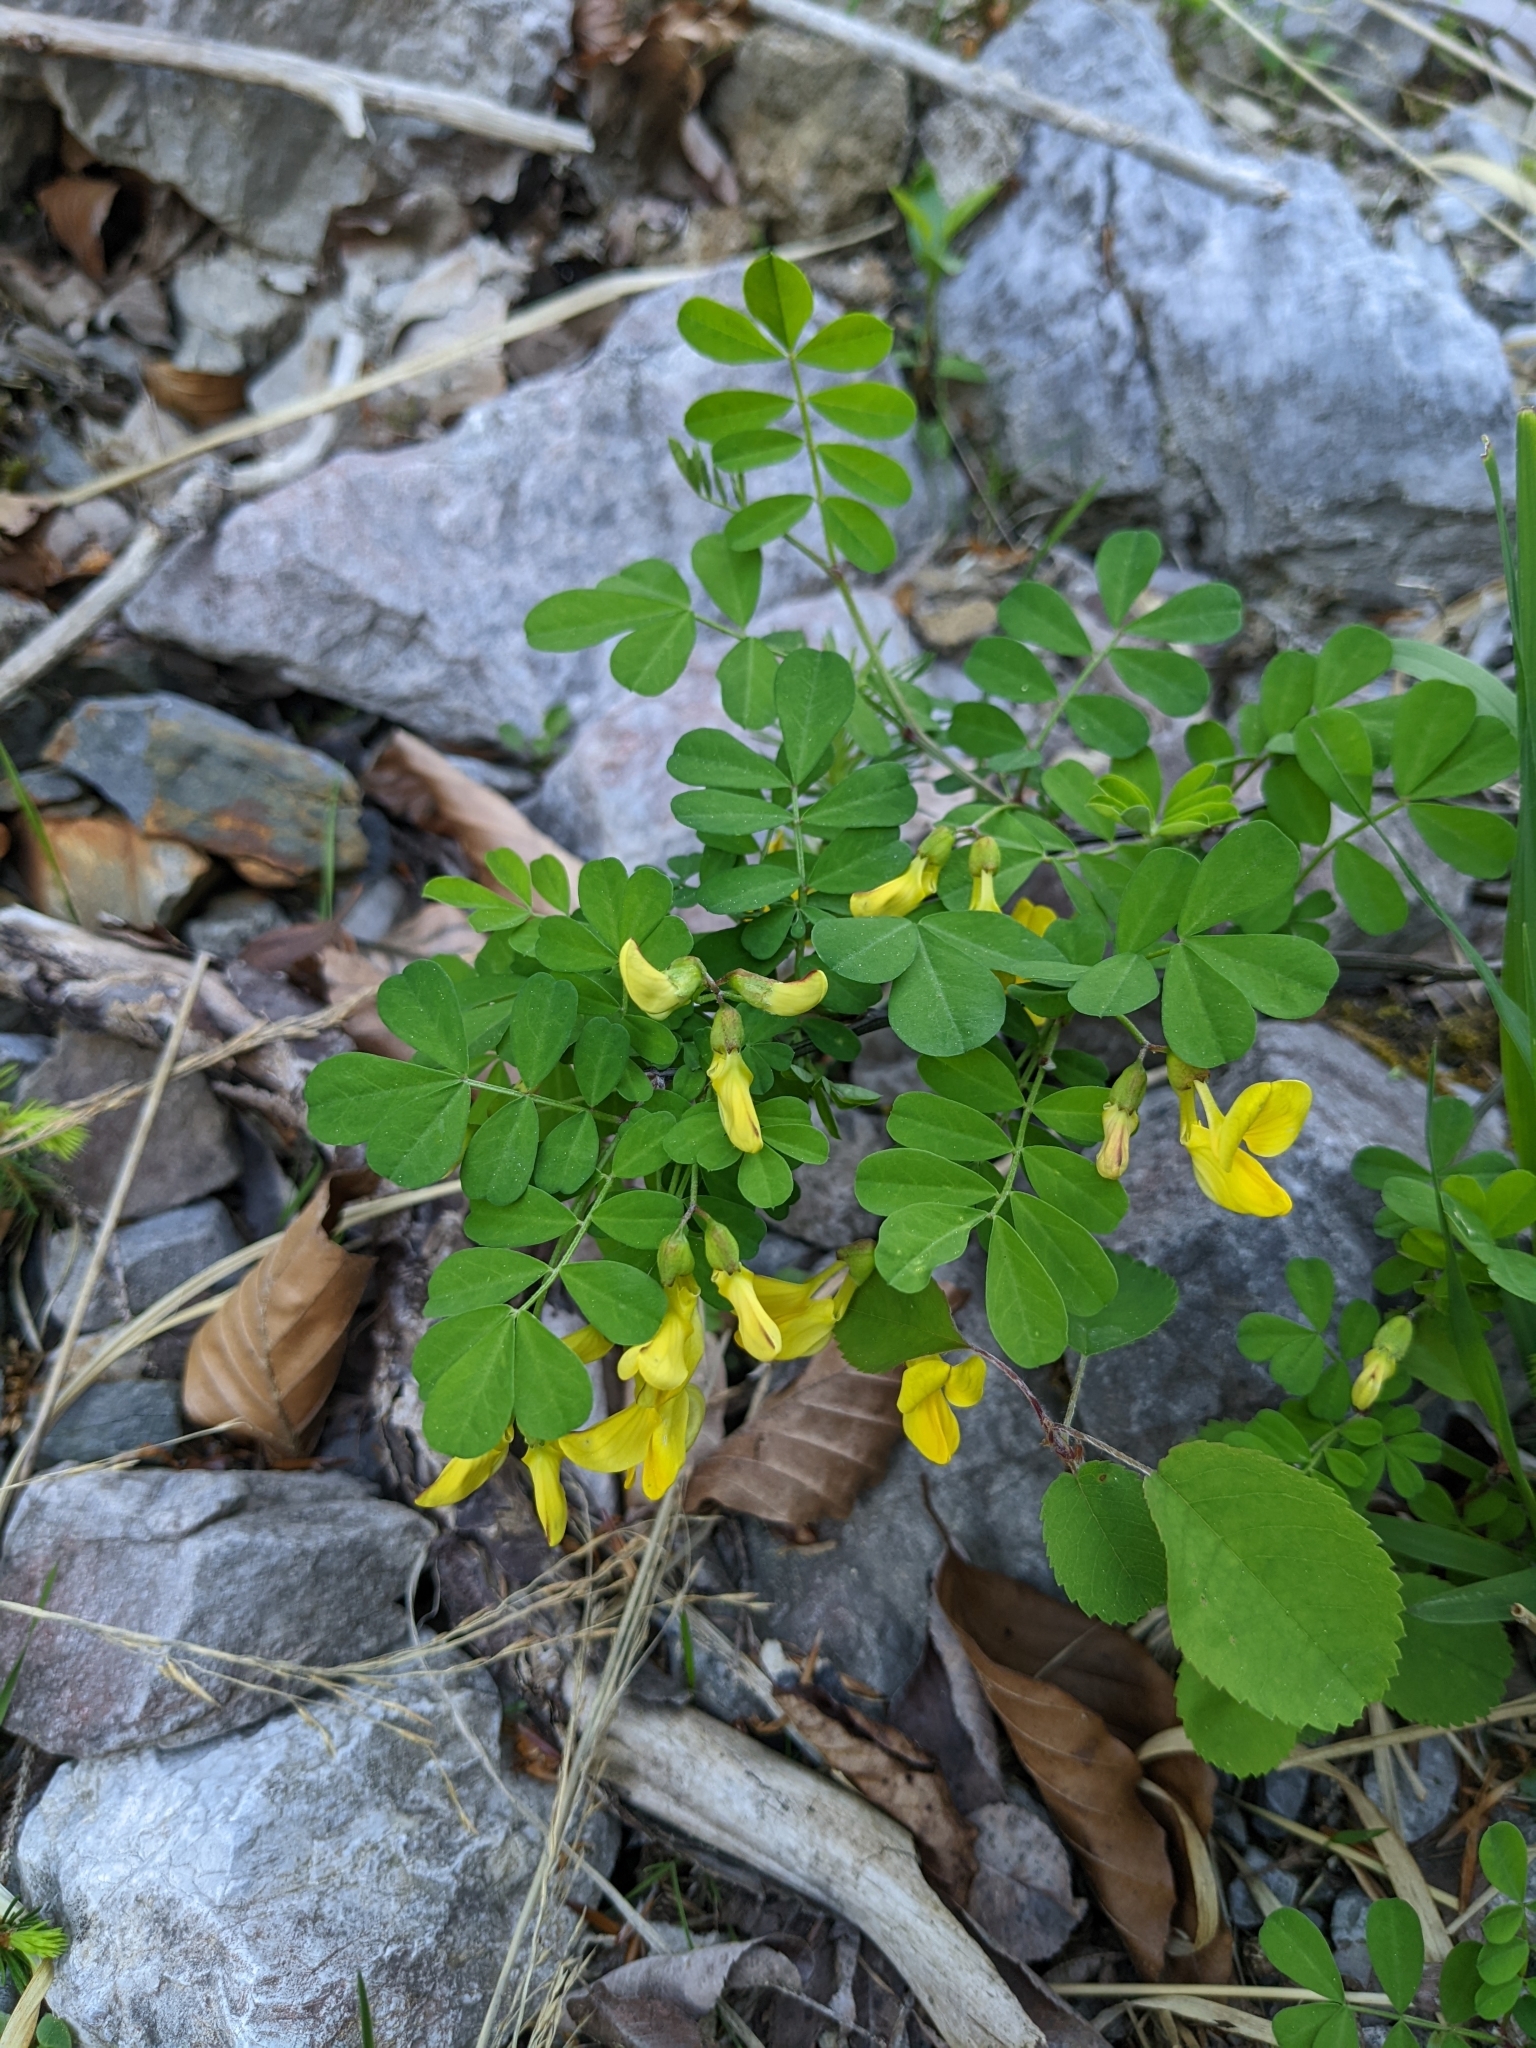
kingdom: Plantae
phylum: Tracheophyta
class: Magnoliopsida
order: Fabales
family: Fabaceae
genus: Hippocrepis
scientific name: Hippocrepis emerus
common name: Scorpion senna
